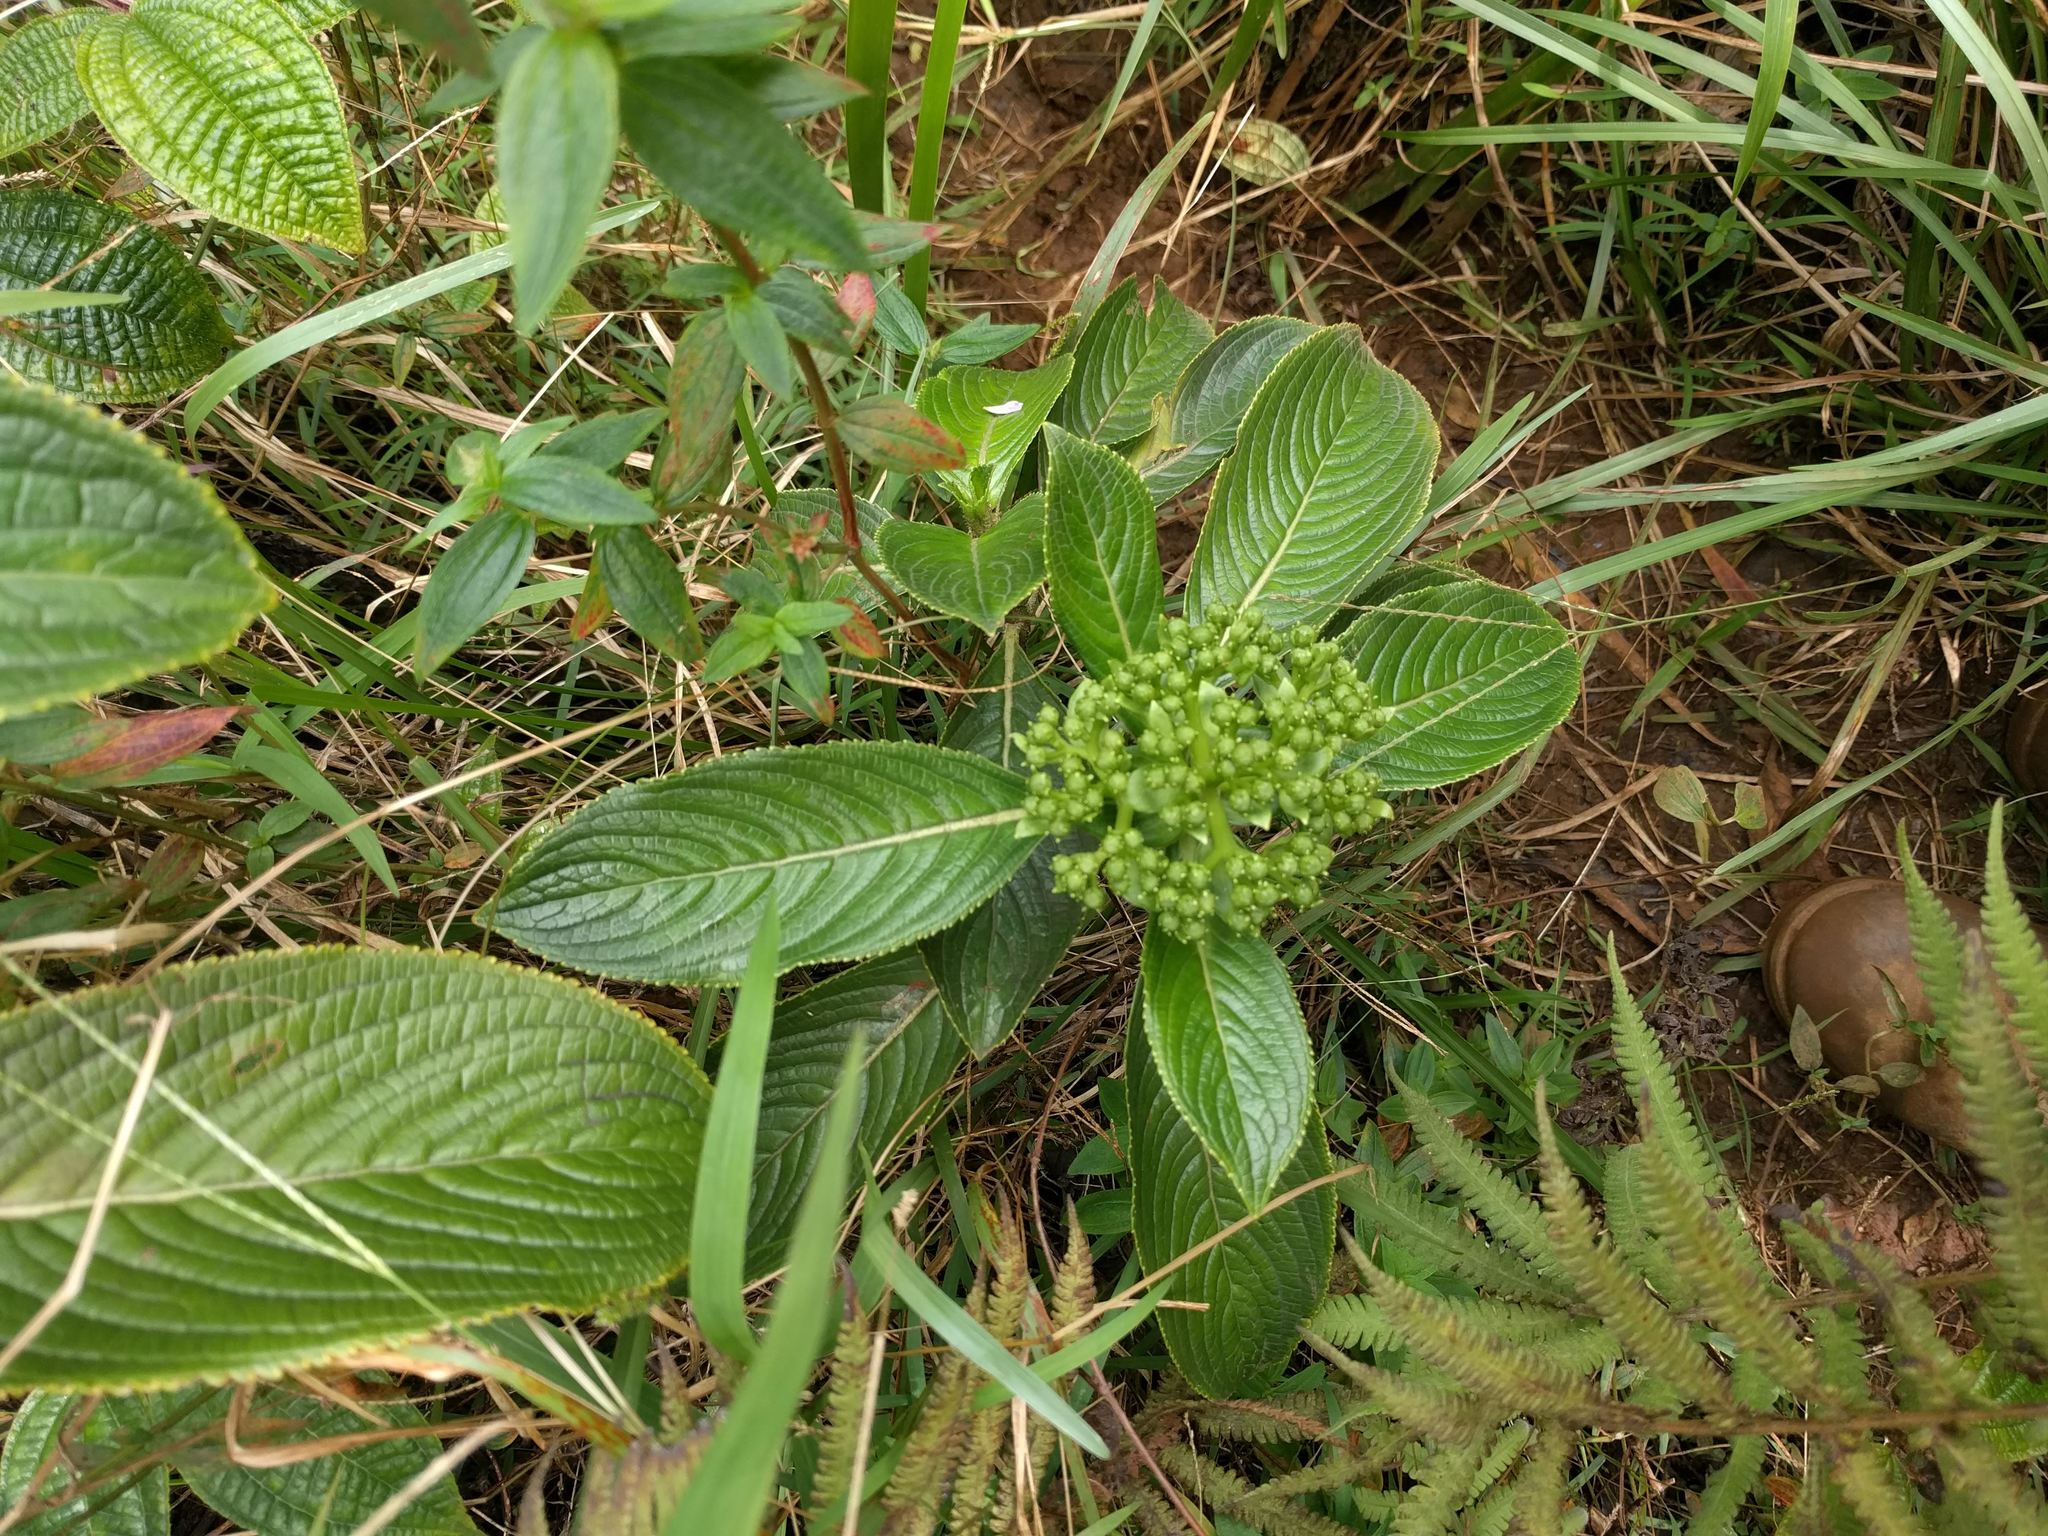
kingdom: Plantae
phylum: Tracheophyta
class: Magnoliopsida
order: Cornales
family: Hydrangeaceae
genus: Hydrangea
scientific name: Hydrangea arguta
